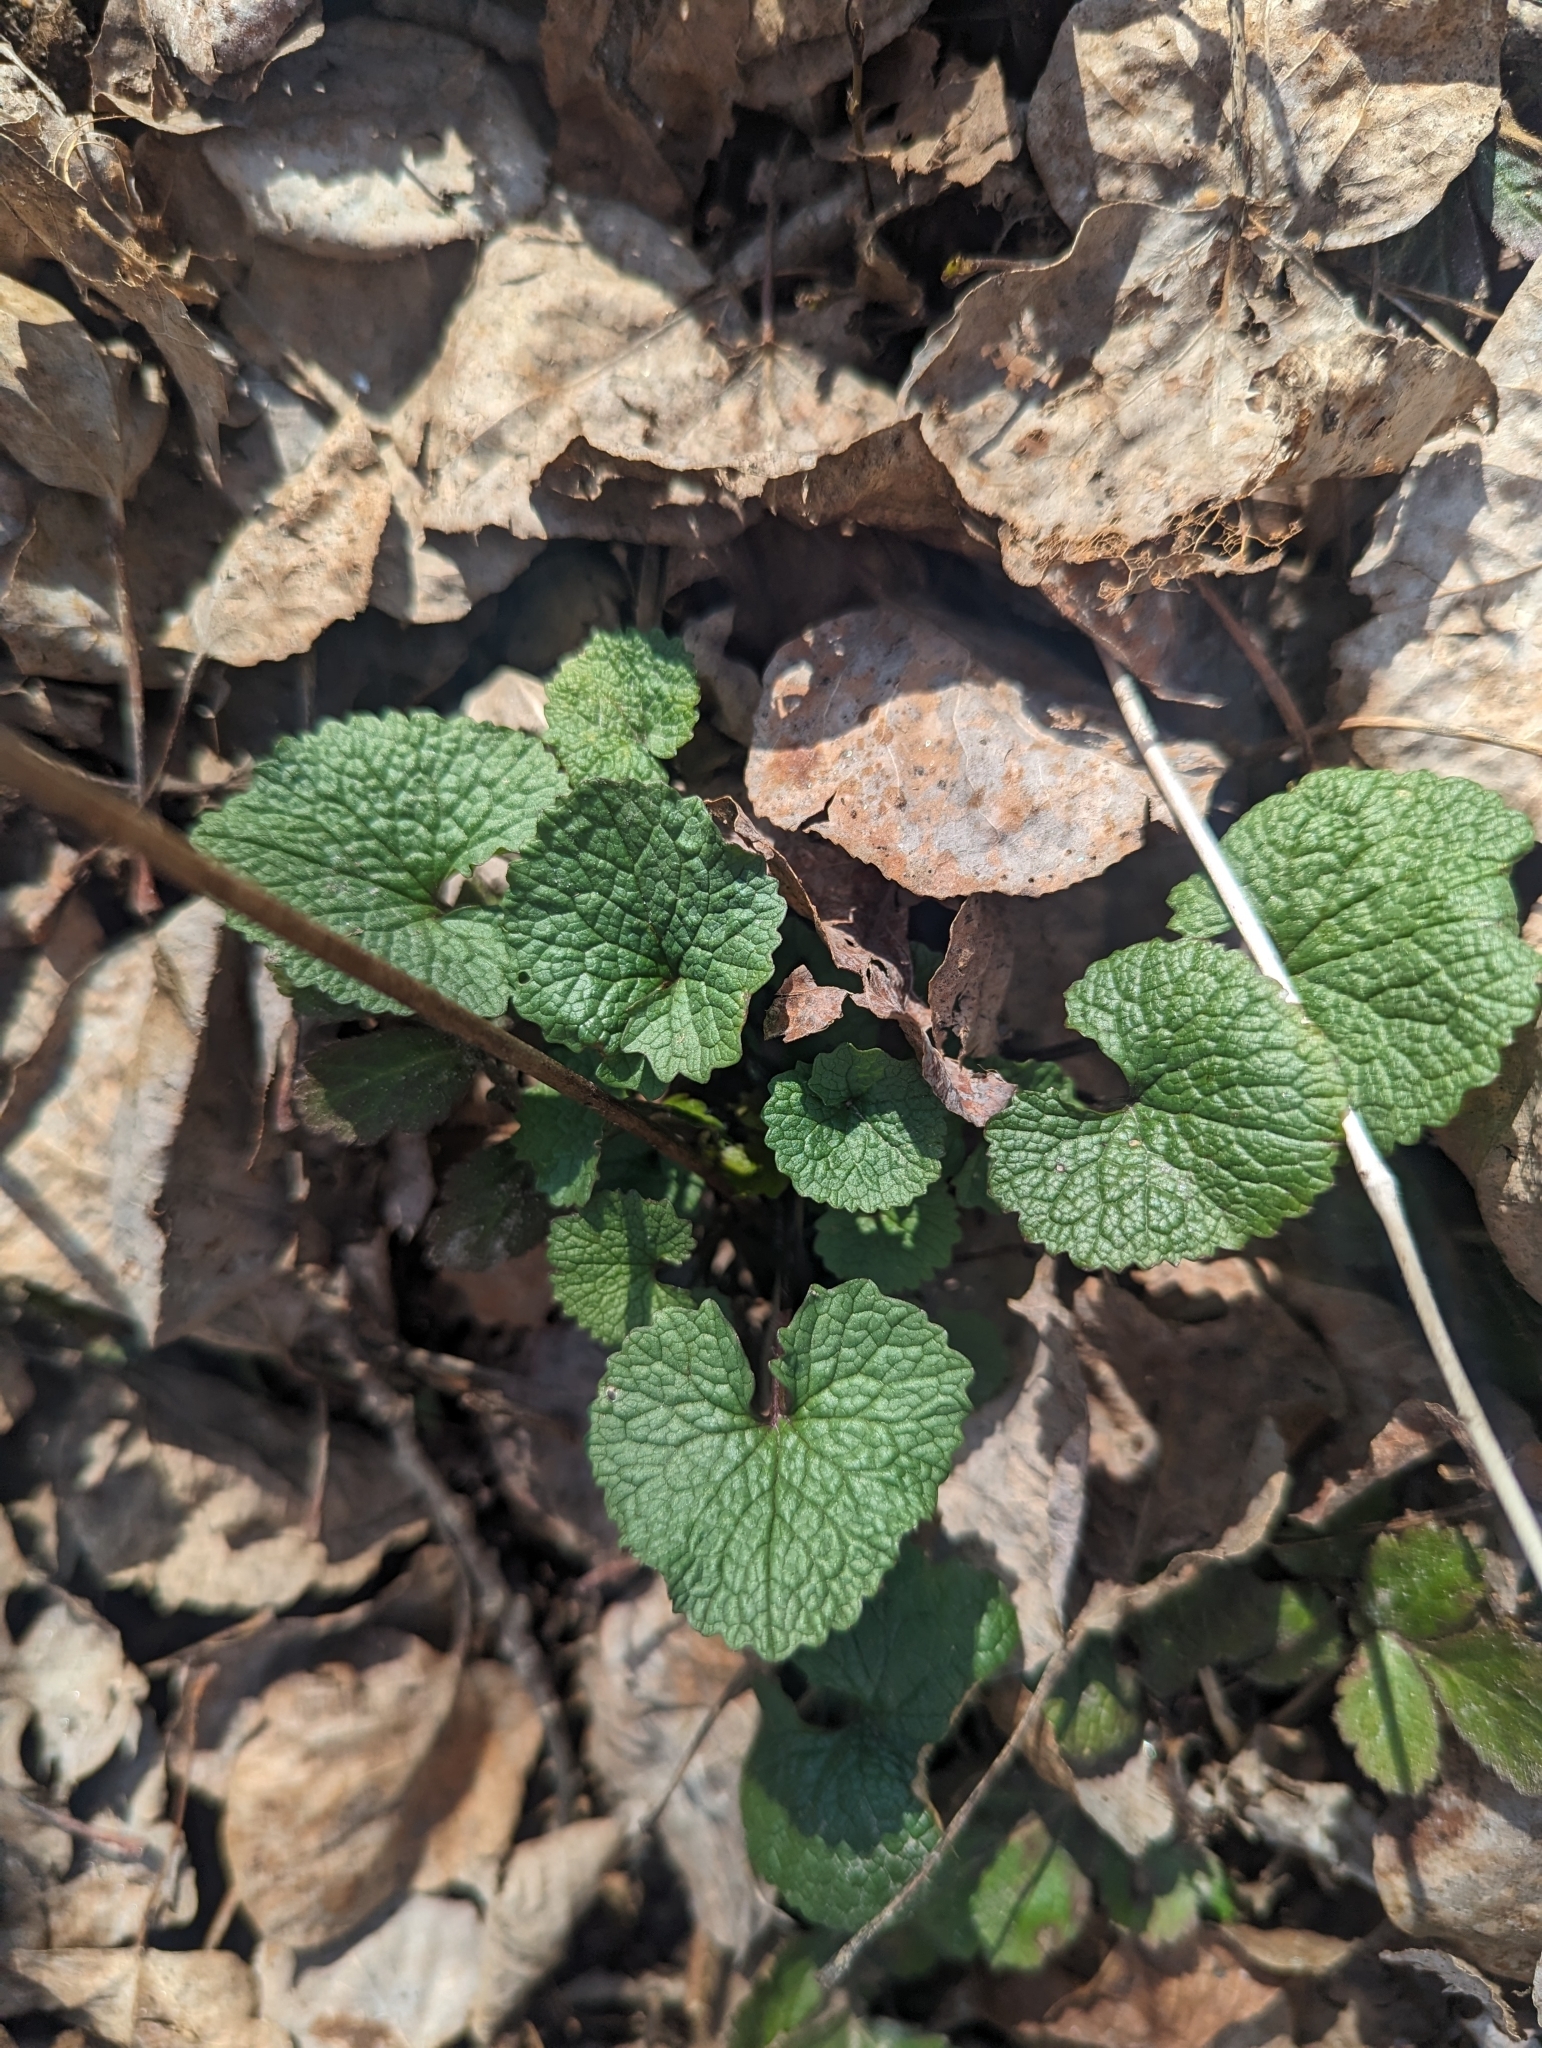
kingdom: Plantae
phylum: Tracheophyta
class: Magnoliopsida
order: Brassicales
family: Brassicaceae
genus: Alliaria
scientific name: Alliaria petiolata
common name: Garlic mustard
